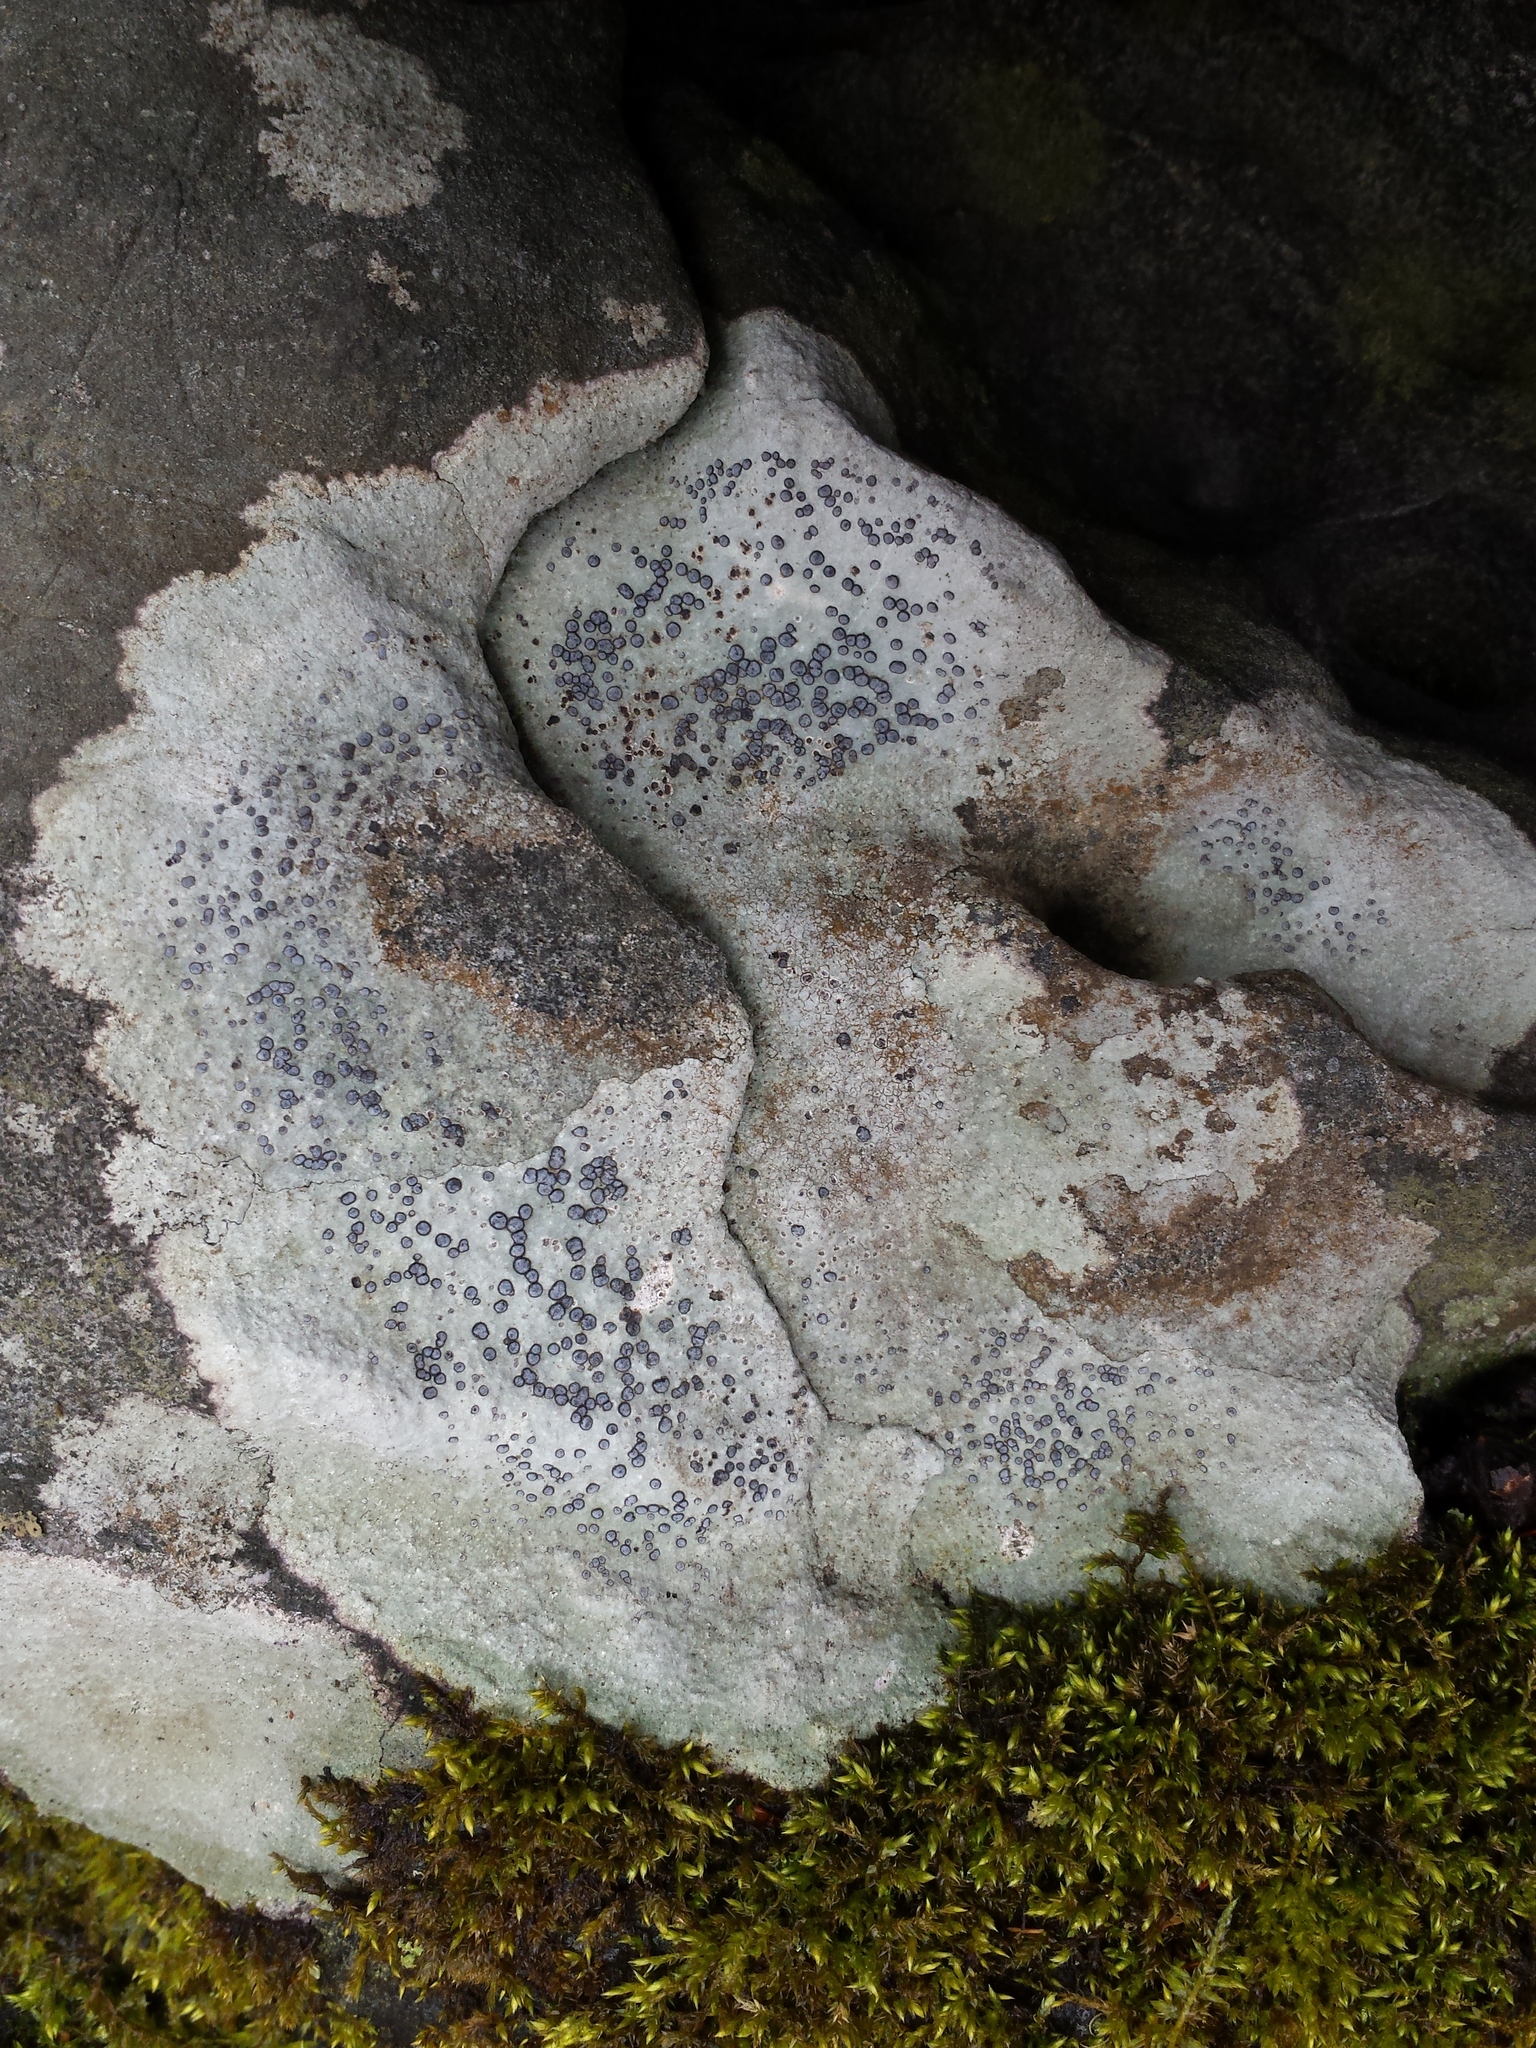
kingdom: Fungi
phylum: Ascomycota
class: Lecanoromycetes
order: Lecideales
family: Lecideaceae
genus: Porpidia
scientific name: Porpidia albocaerulescens
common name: Smokey-eyed boulder lichen
